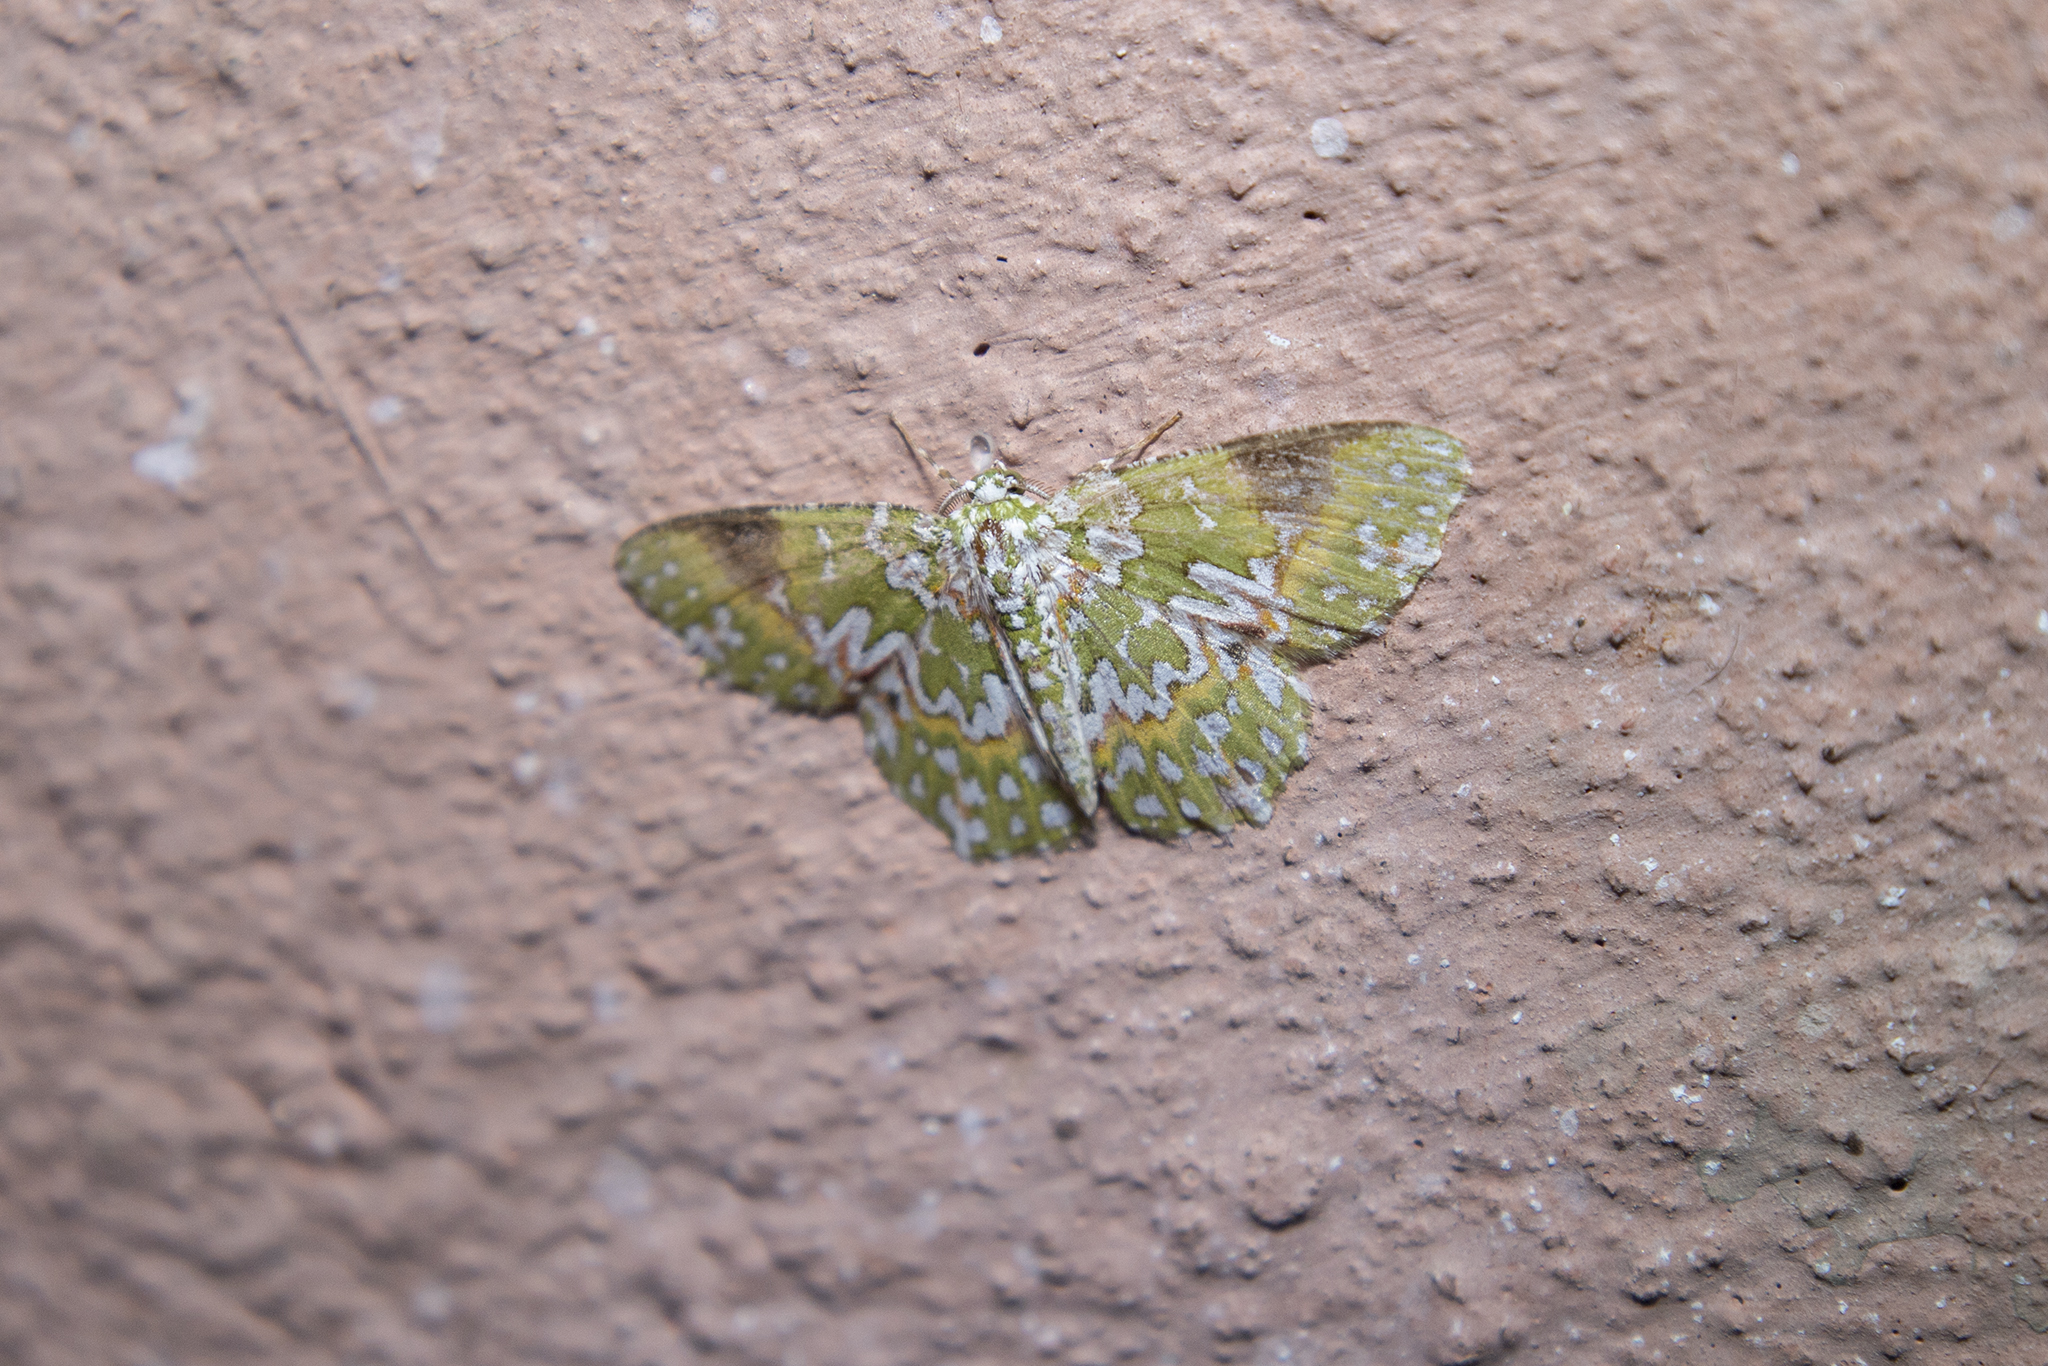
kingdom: Animalia
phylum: Arthropoda
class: Insecta
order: Lepidoptera
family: Geometridae
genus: Eucyclodes
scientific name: Eucyclodes gavissima
